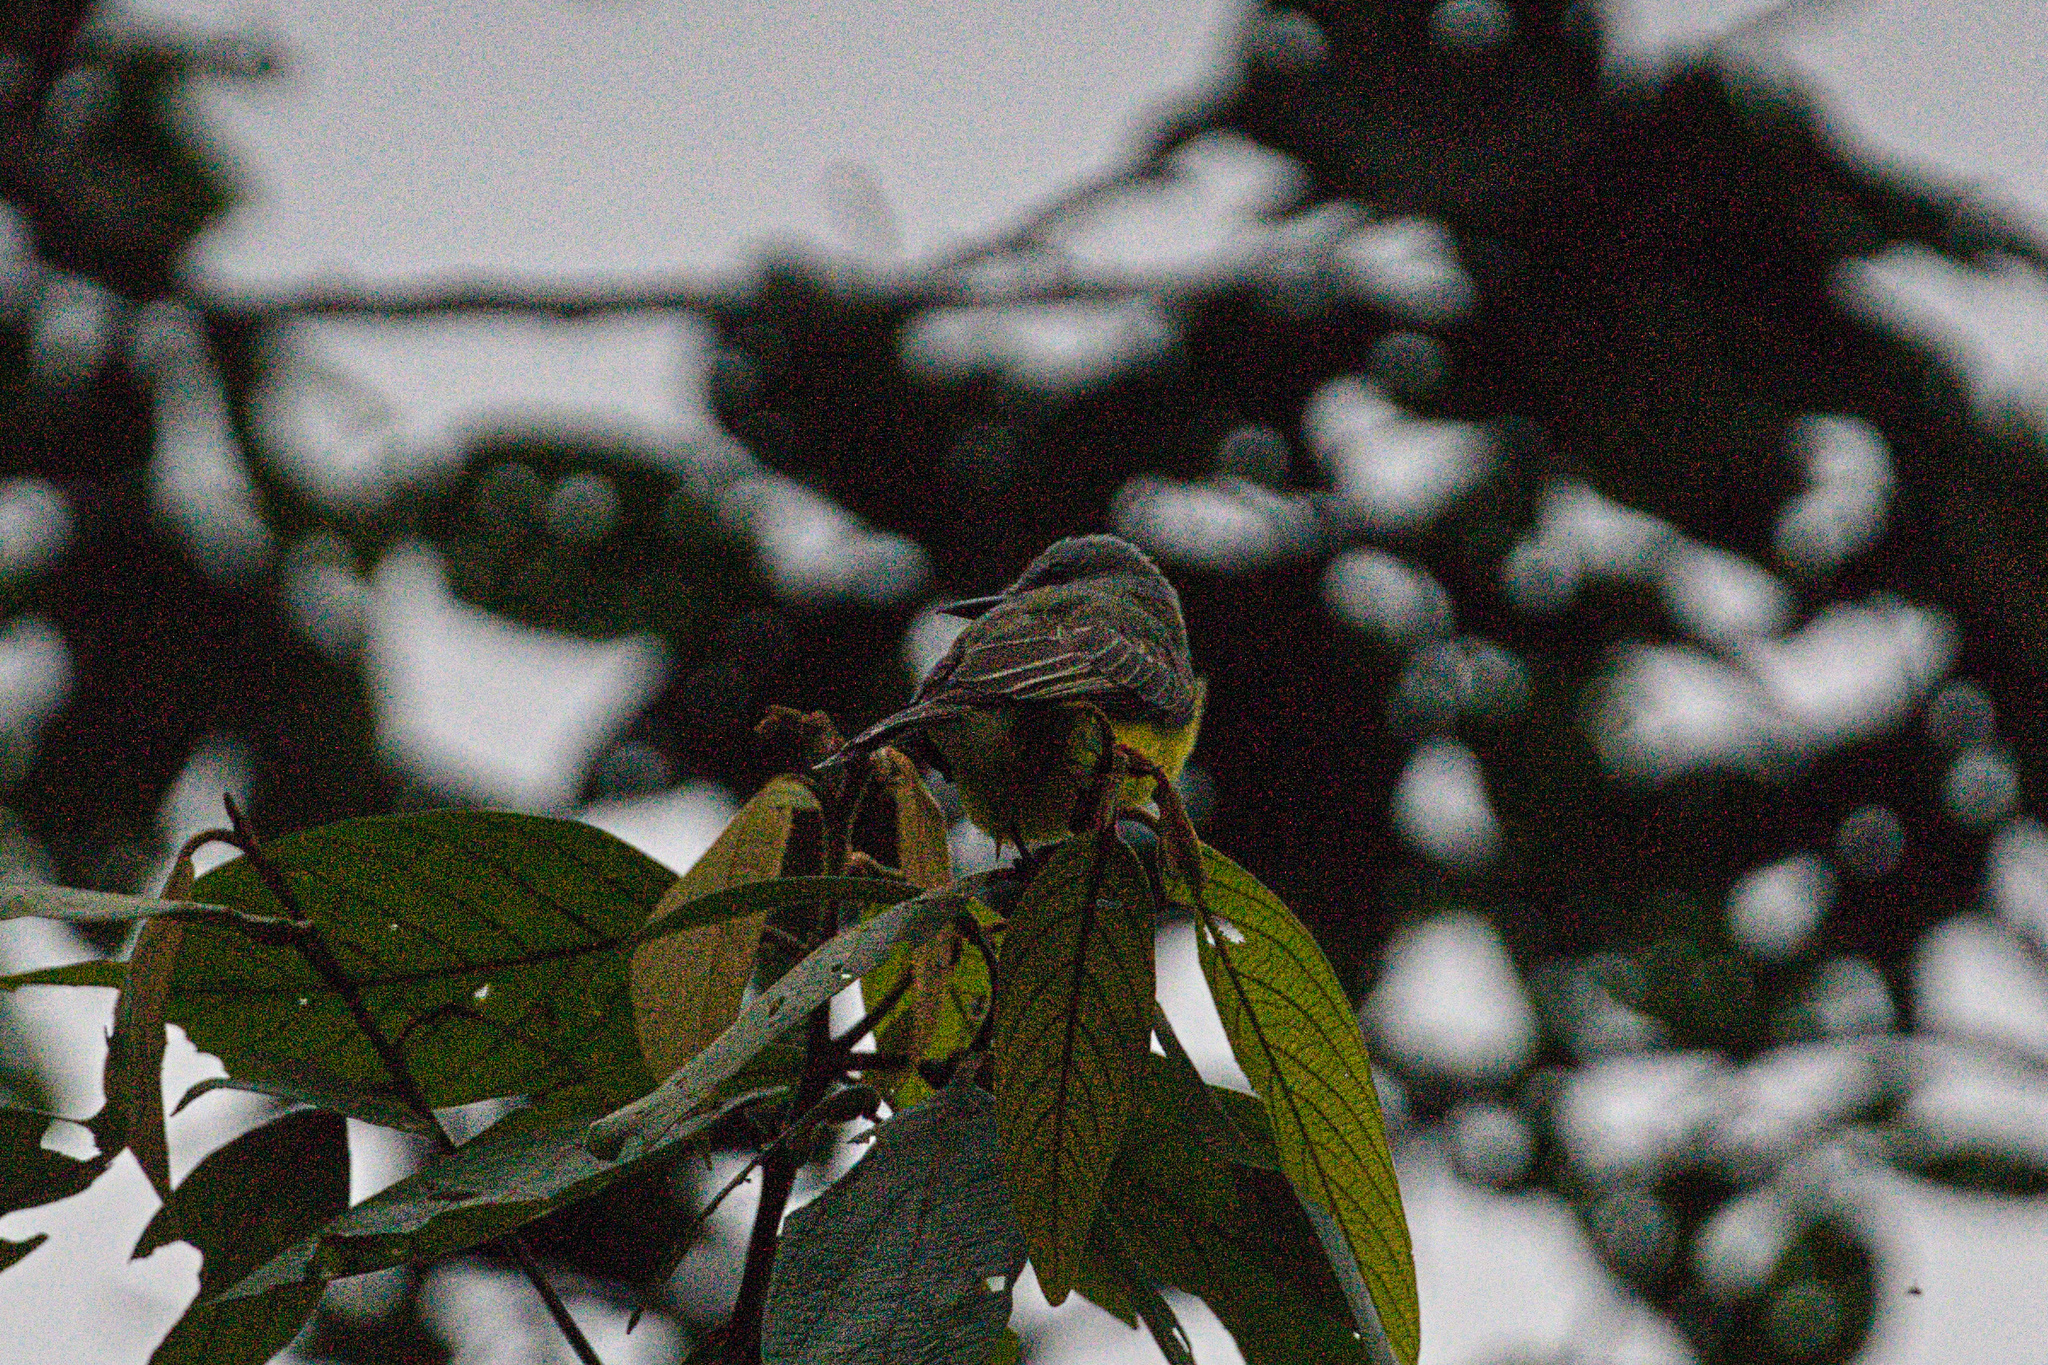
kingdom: Animalia
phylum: Chordata
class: Aves
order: Passeriformes
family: Tyrannidae
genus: Tyrannus
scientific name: Tyrannus melancholicus
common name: Tropical kingbird
